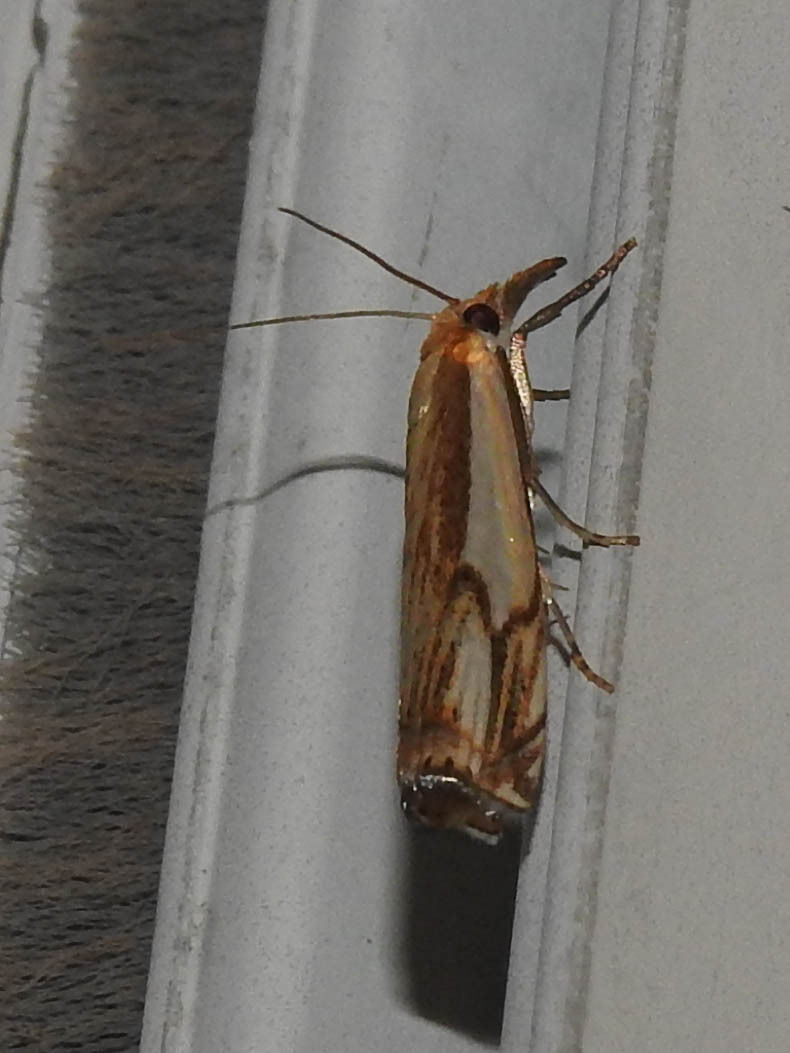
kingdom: Animalia
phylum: Arthropoda
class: Insecta
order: Lepidoptera
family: Crambidae
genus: Crambus
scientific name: Crambus agitatellus
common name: Double-banded grass-veneer
